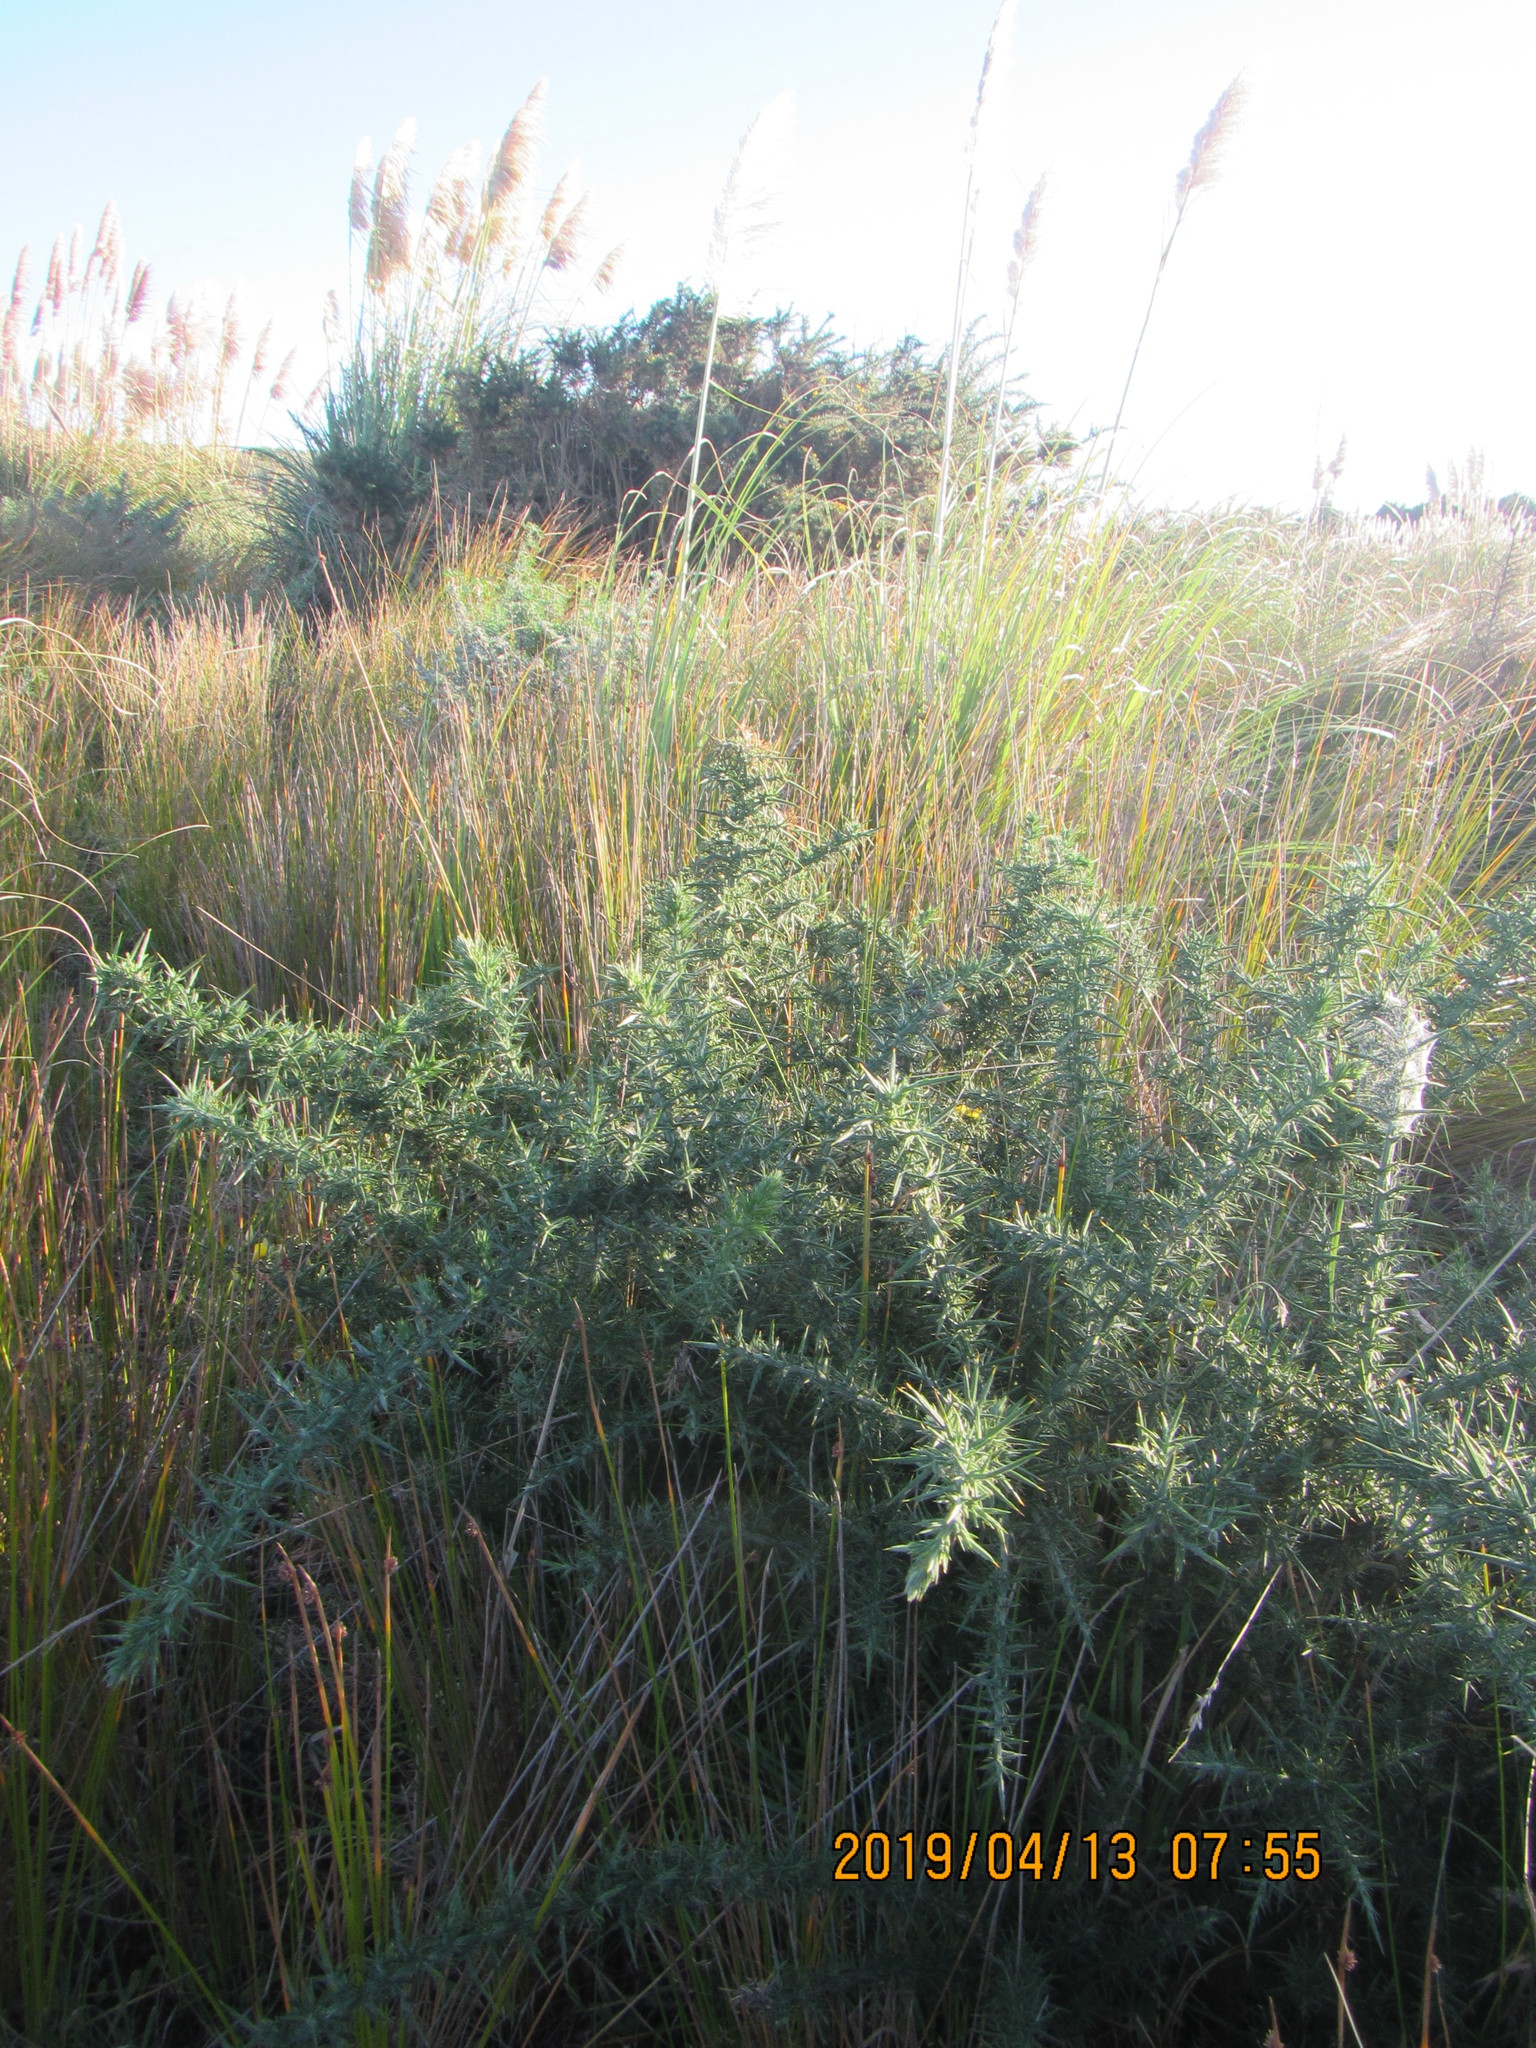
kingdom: Plantae
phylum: Tracheophyta
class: Magnoliopsida
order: Fabales
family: Fabaceae
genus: Ulex
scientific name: Ulex europaeus
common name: Common gorse
